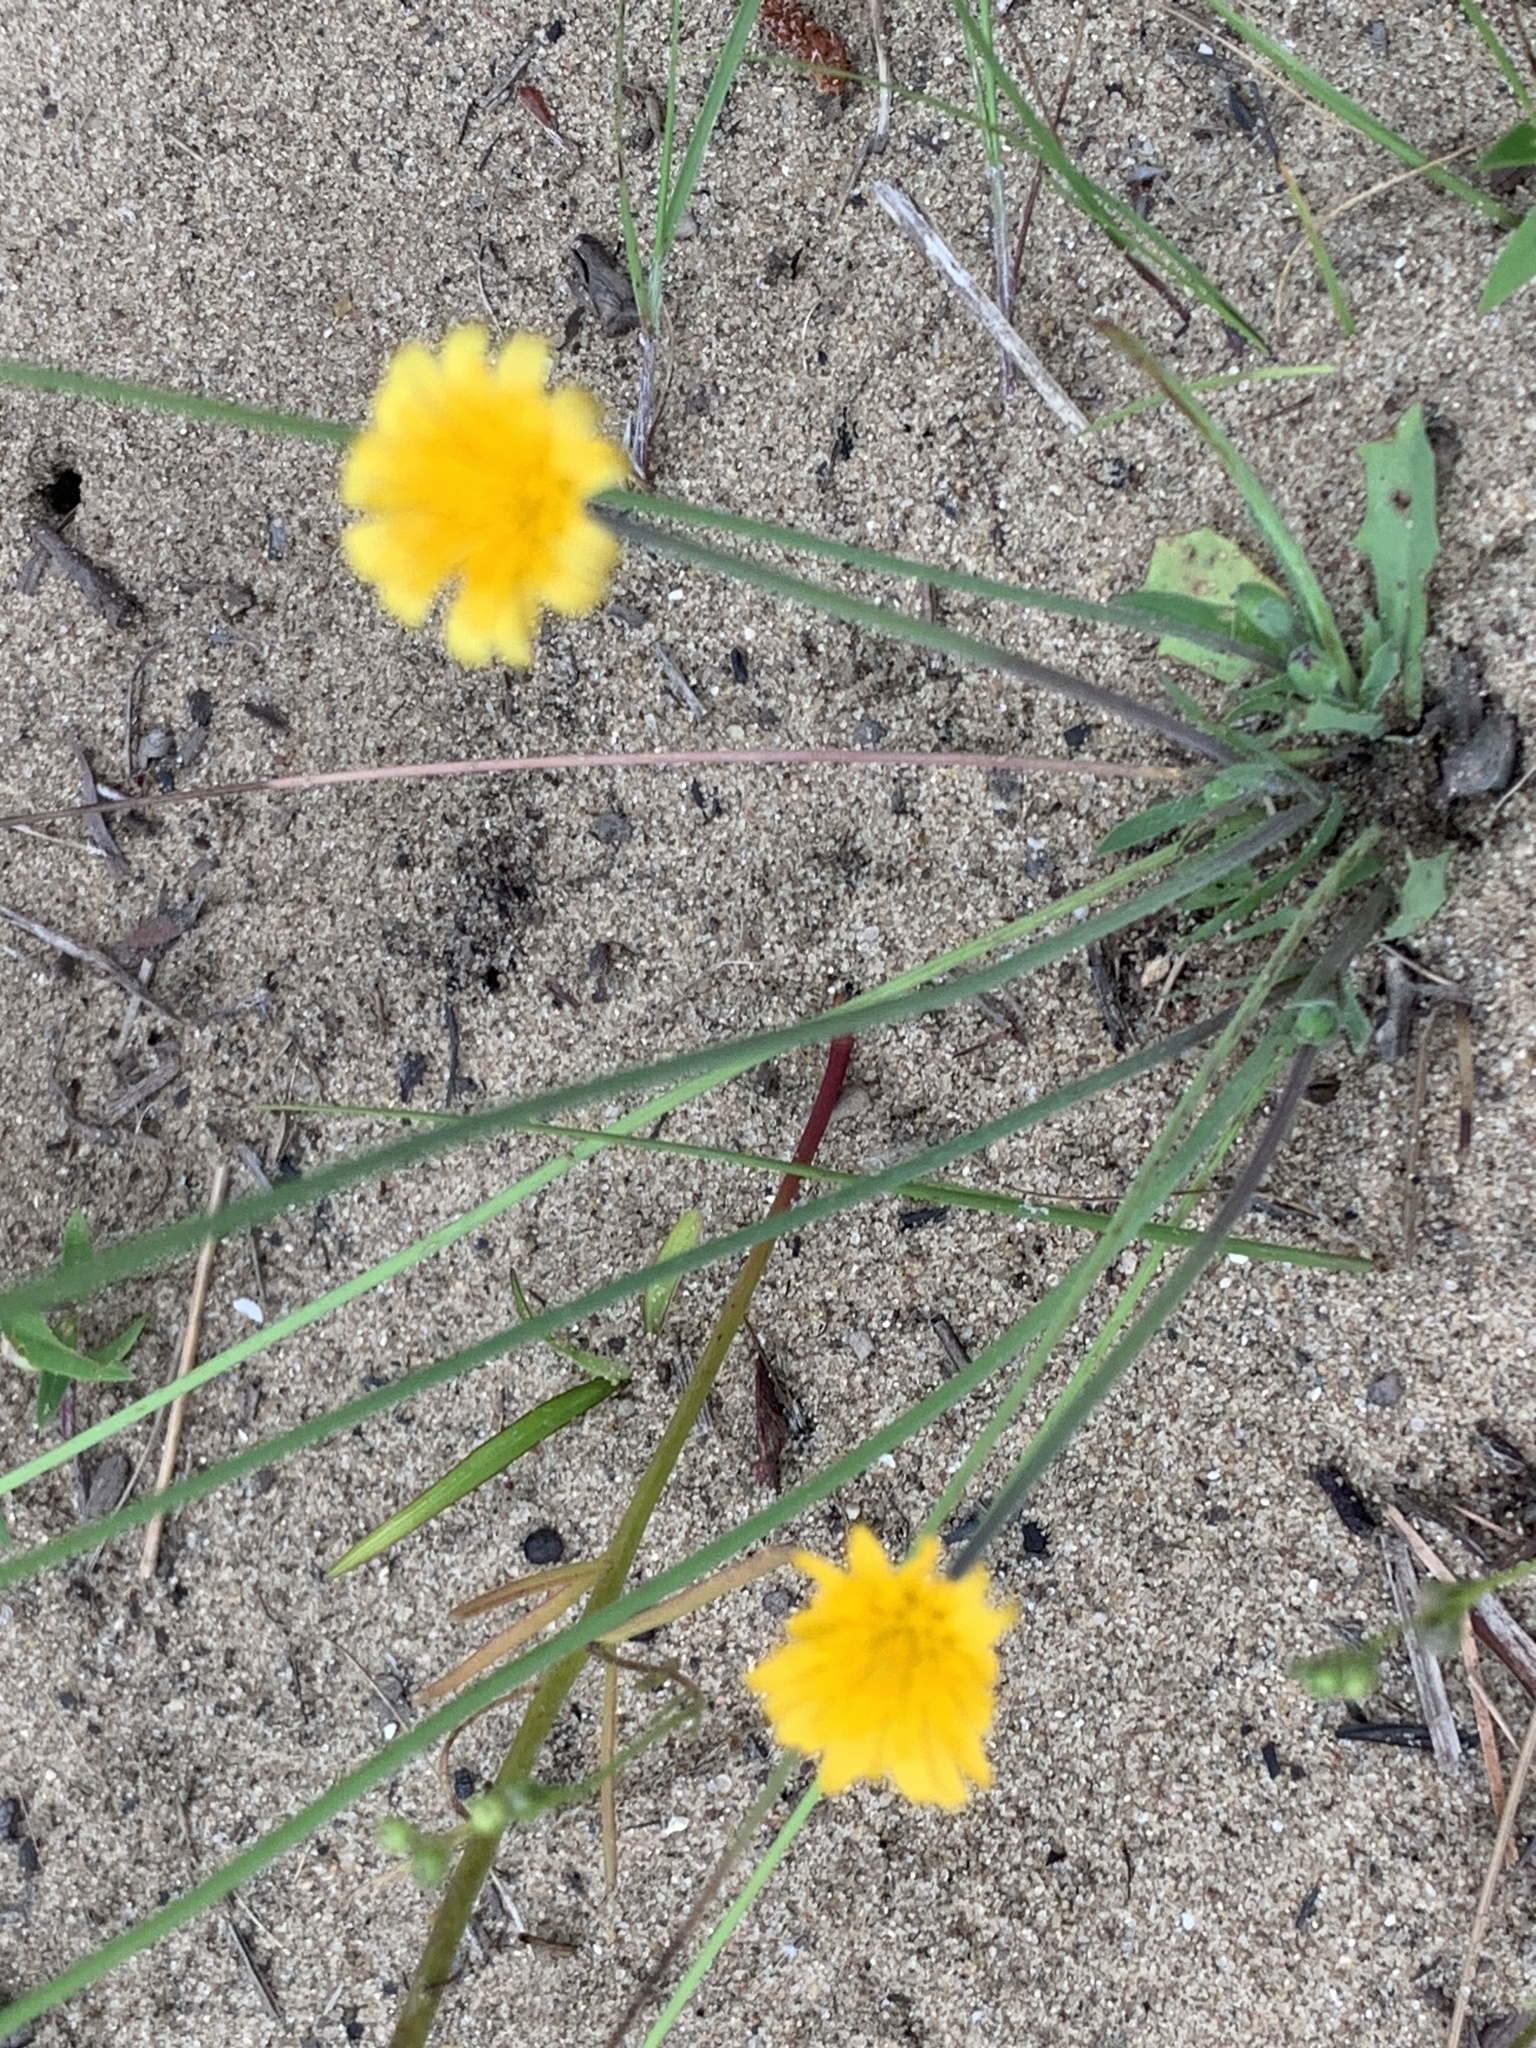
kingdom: Plantae
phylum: Tracheophyta
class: Magnoliopsida
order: Asterales
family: Asteraceae
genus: Krigia
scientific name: Krigia virginica
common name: Virginia dwarf-dandelion
